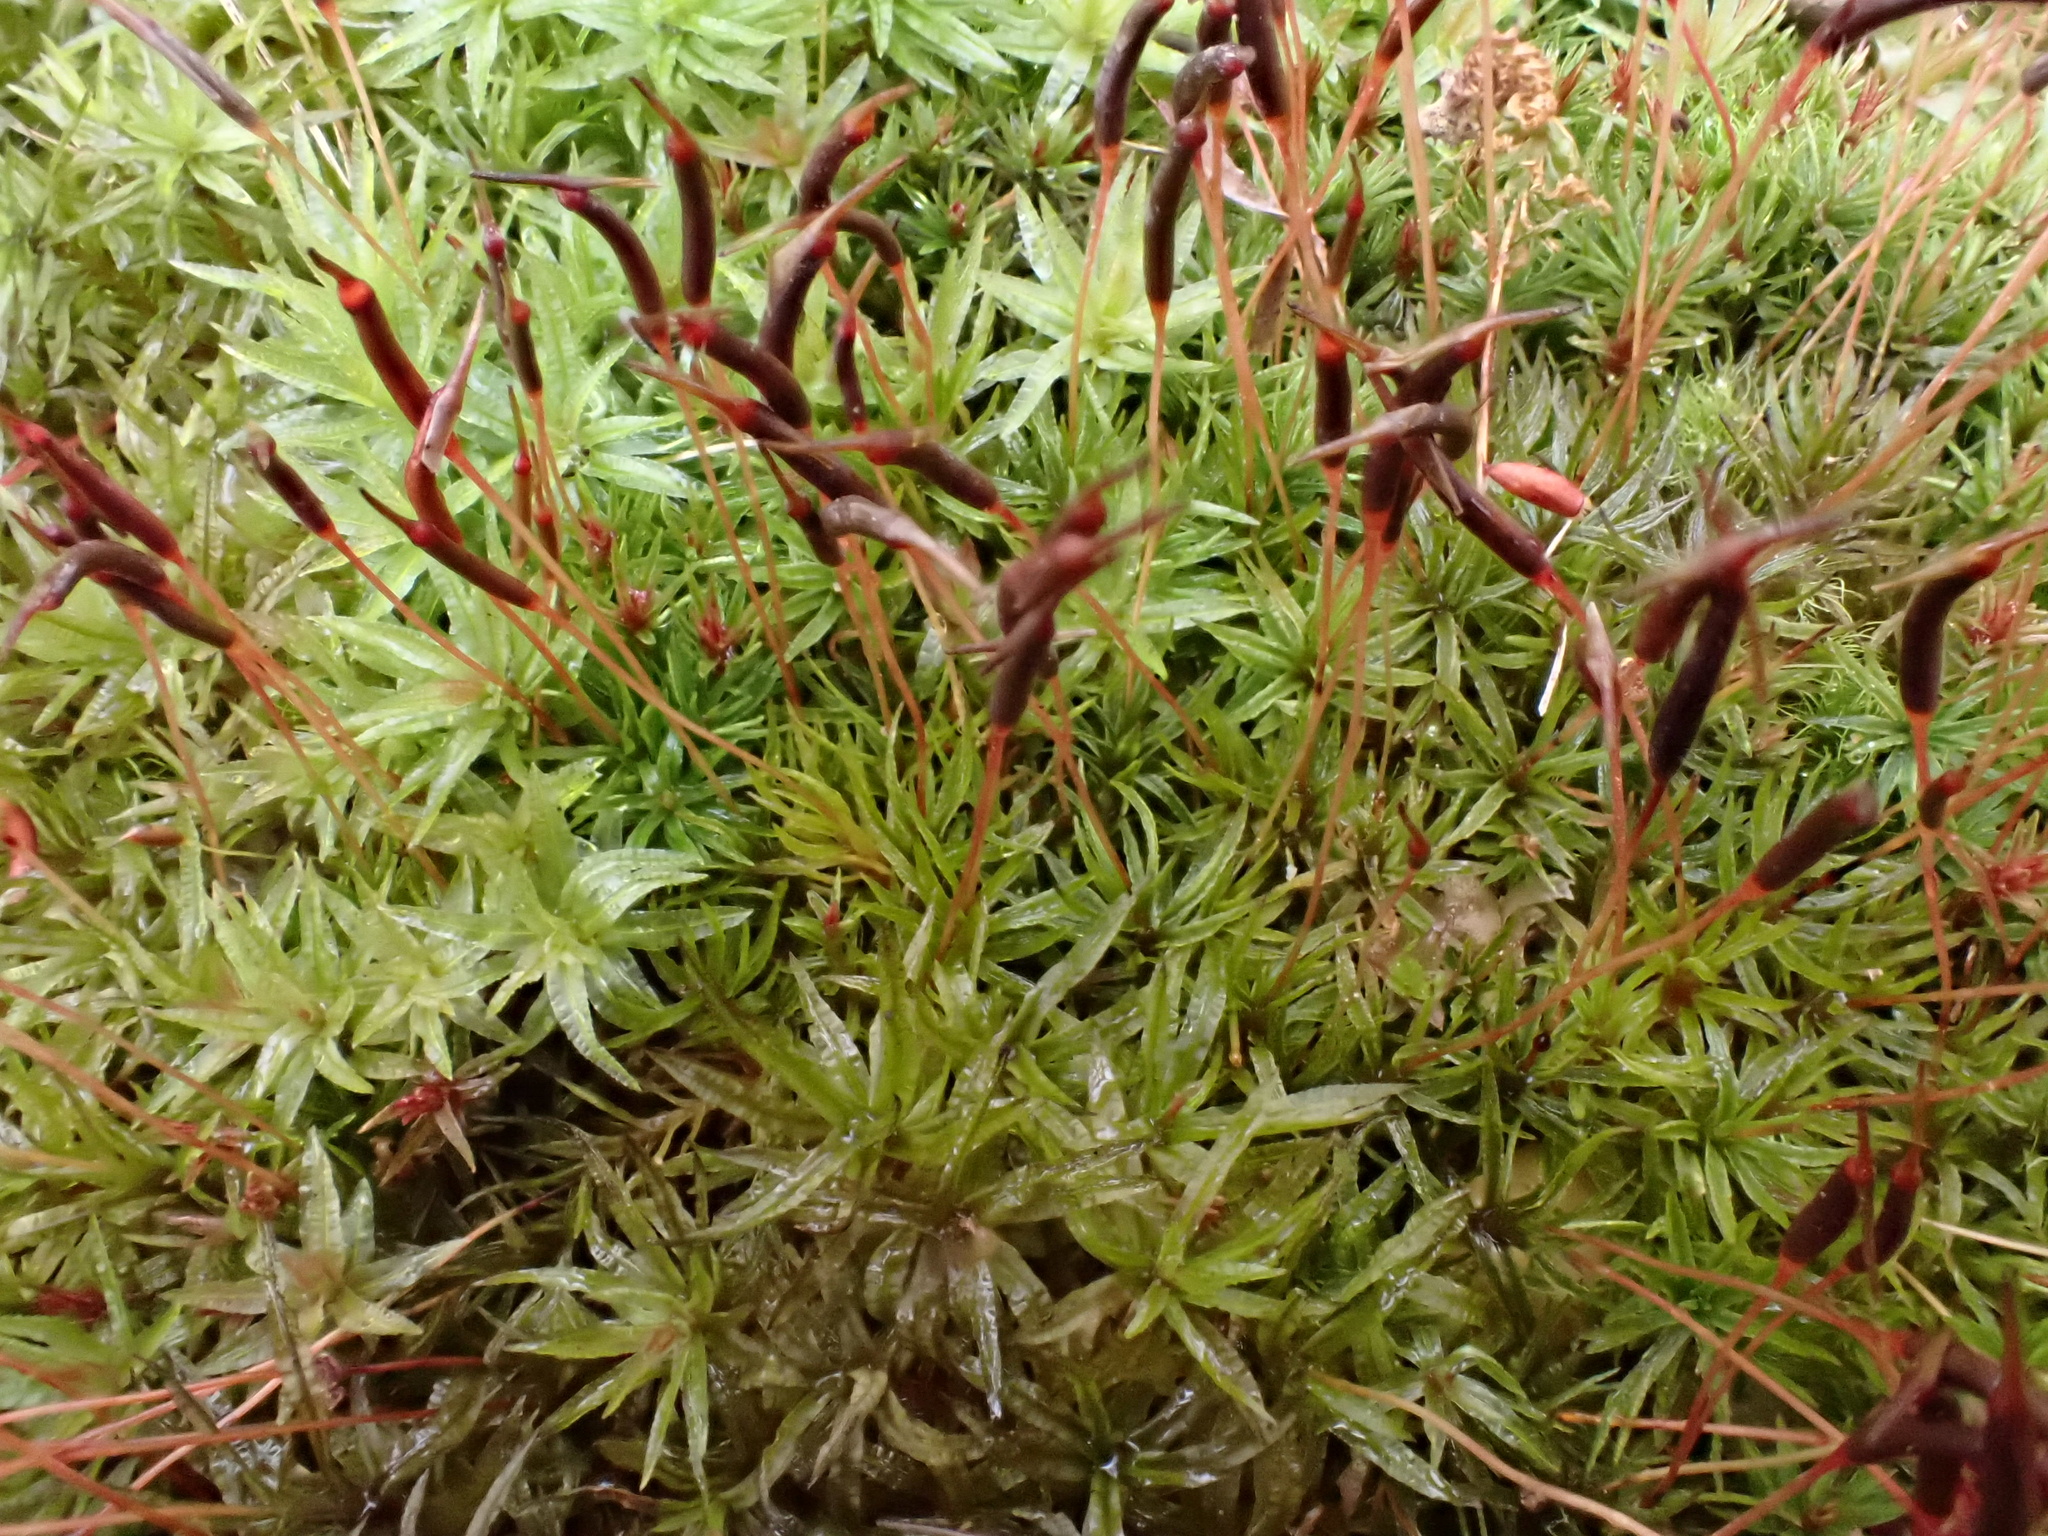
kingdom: Plantae
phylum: Bryophyta
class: Polytrichopsida
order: Polytrichales
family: Polytrichaceae
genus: Atrichum
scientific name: Atrichum undulatum
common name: Common smoothcap
